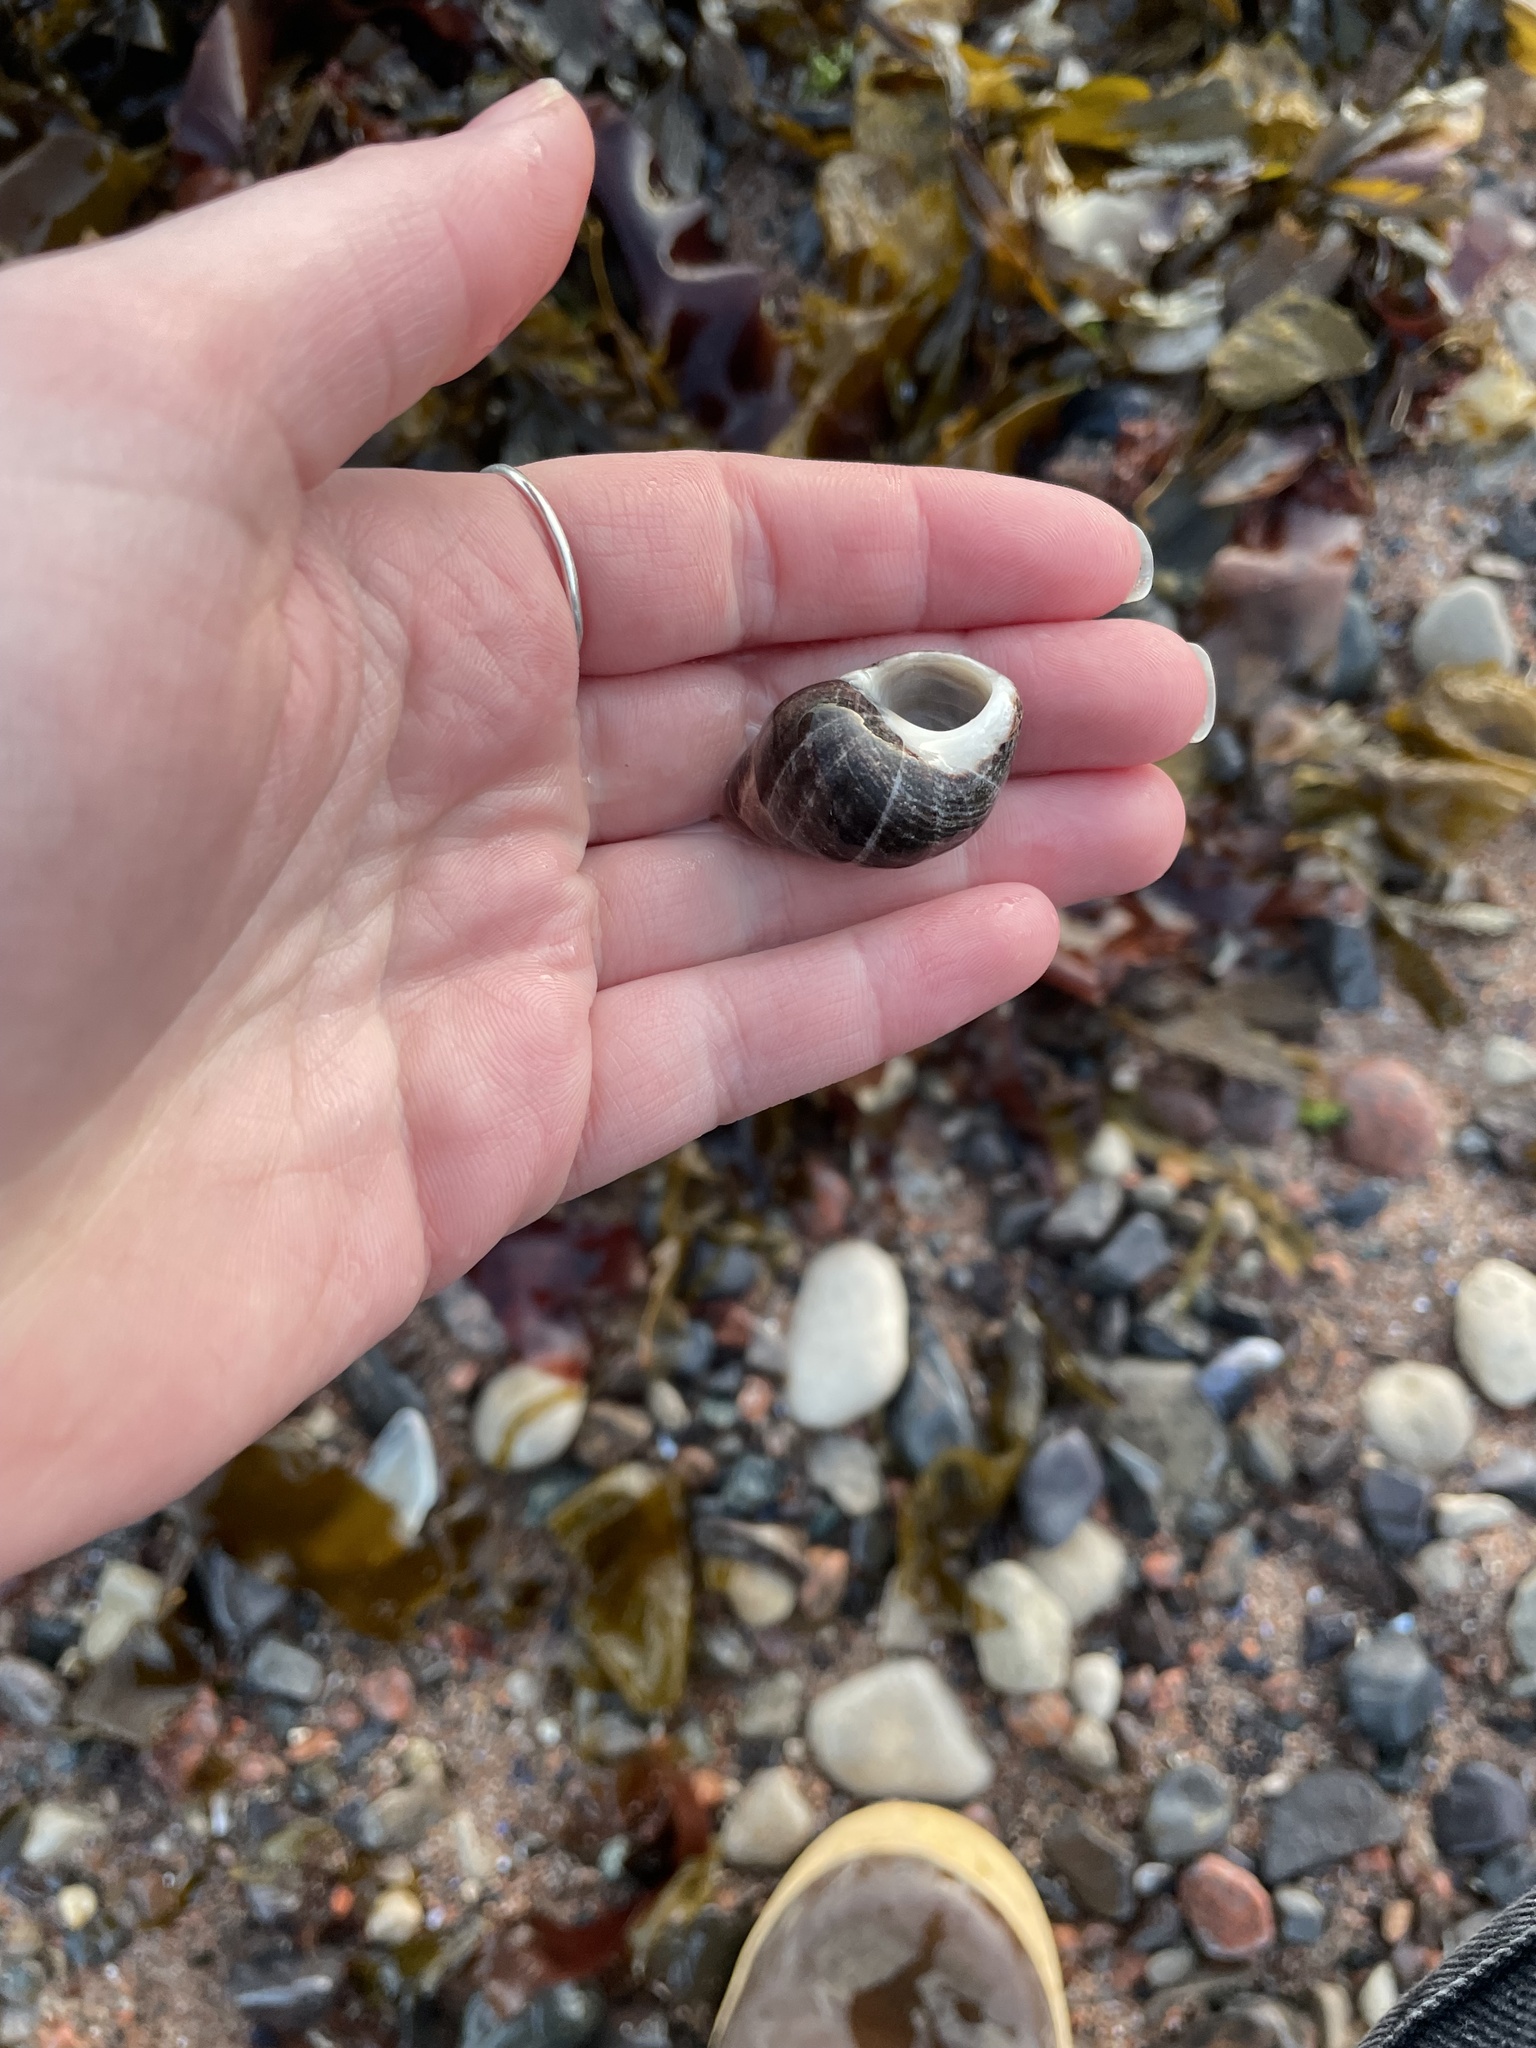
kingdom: Animalia
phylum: Mollusca
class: Gastropoda
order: Littorinimorpha
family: Littorinidae
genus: Littorina
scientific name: Littorina littorea
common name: Common periwinkle
